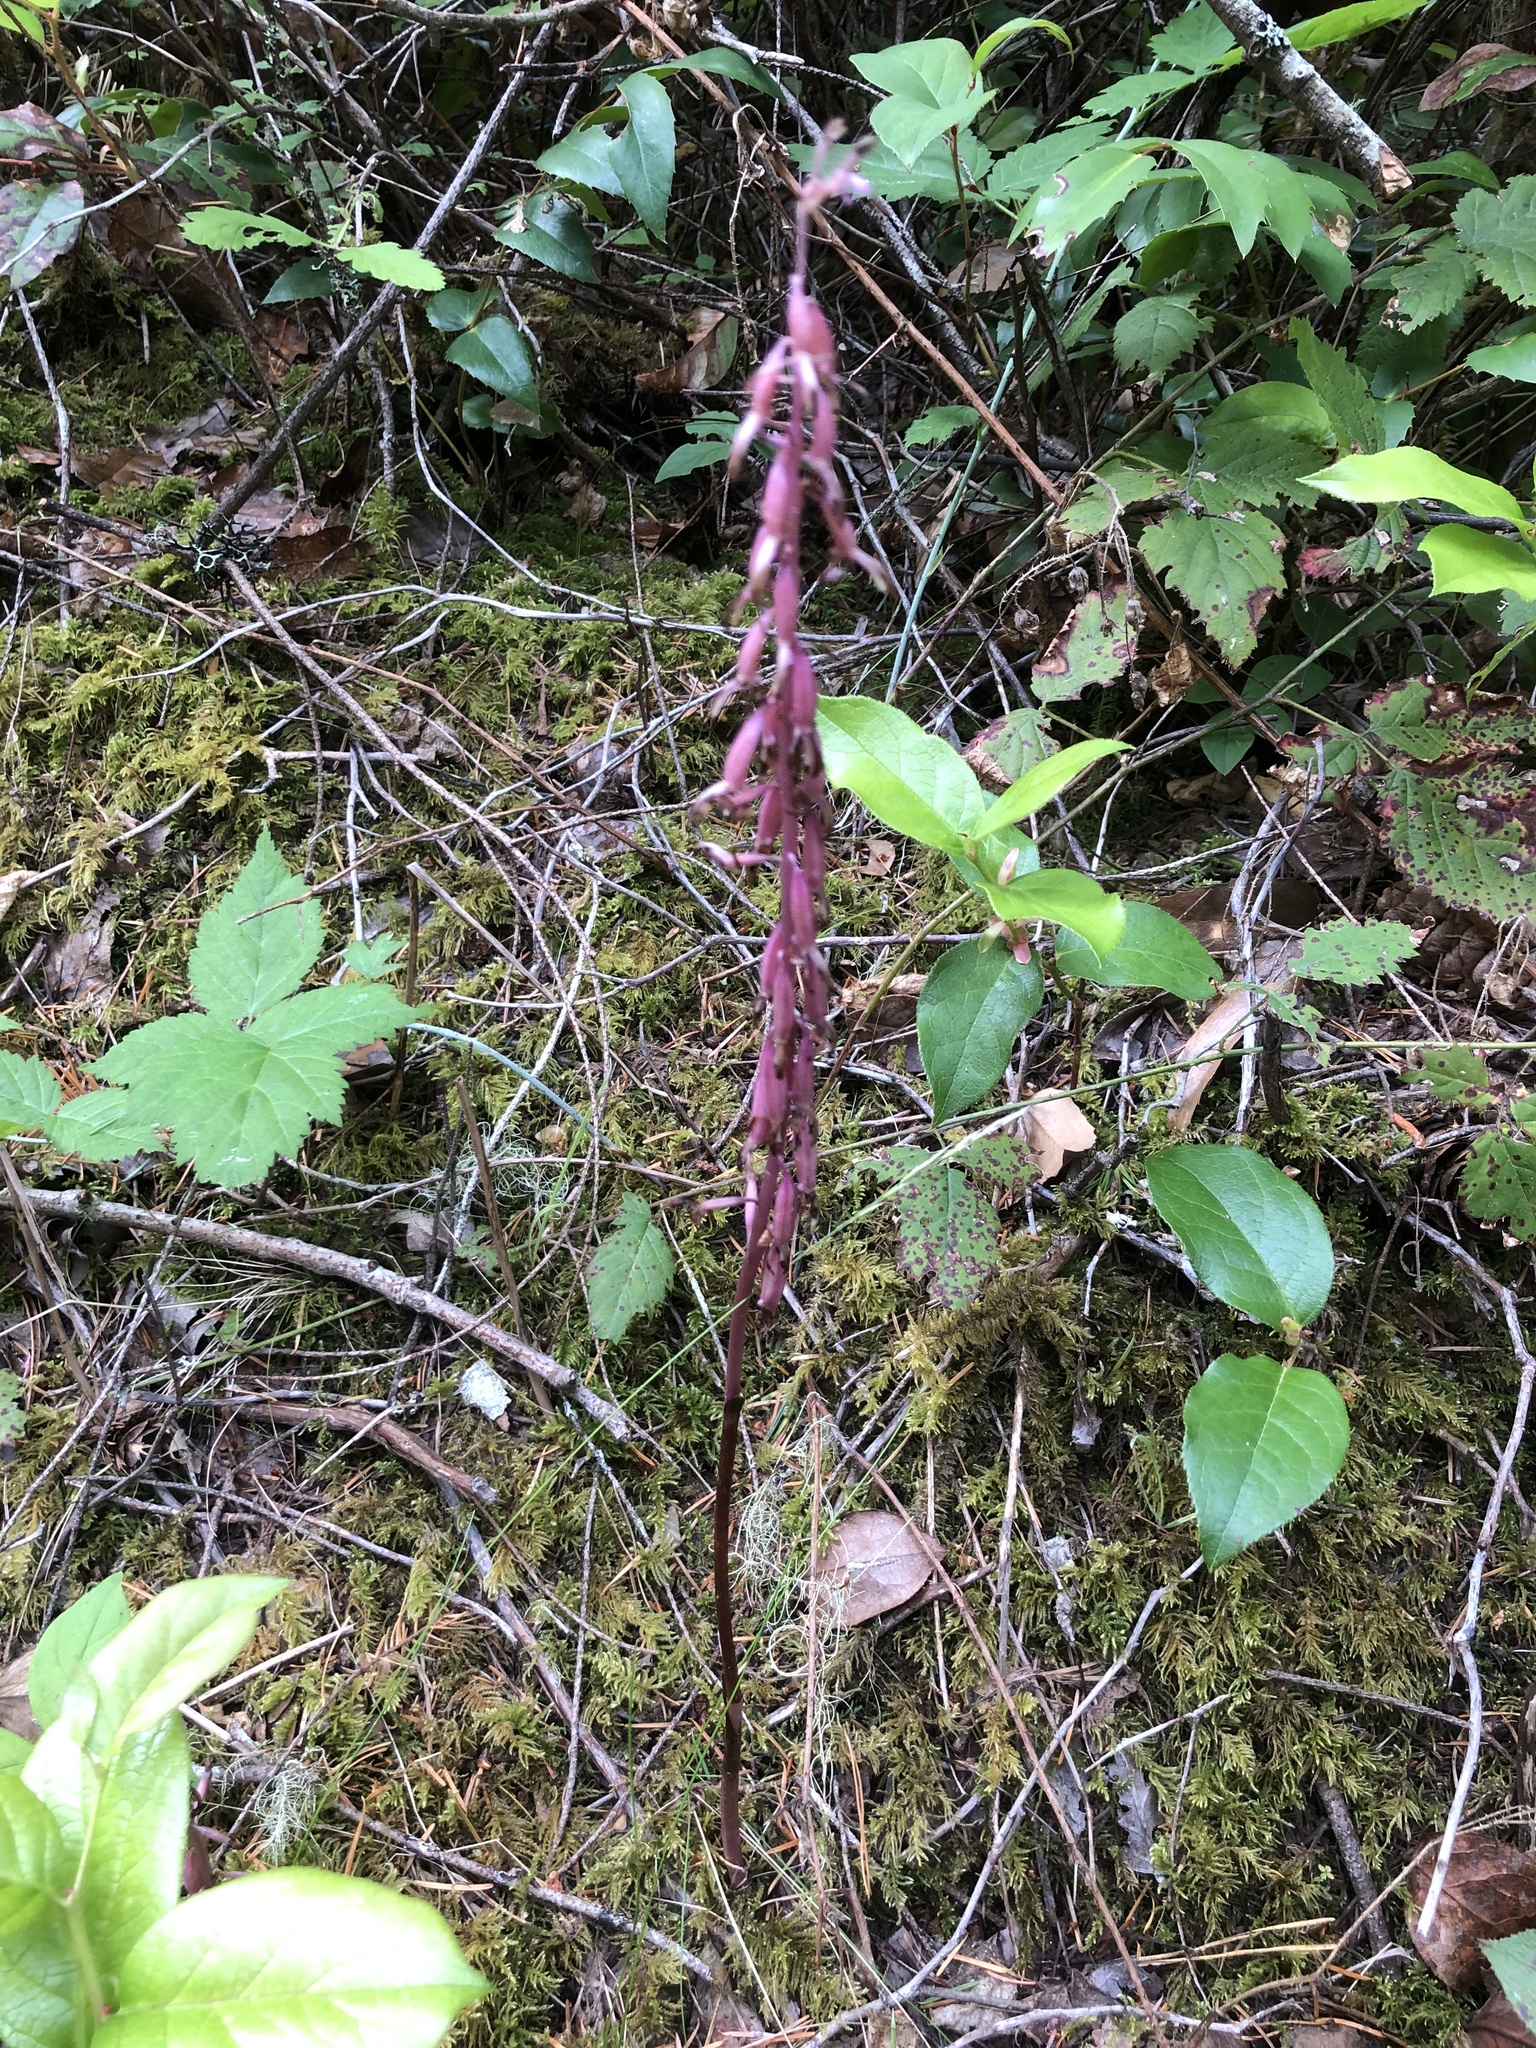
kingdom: Plantae
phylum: Tracheophyta
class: Liliopsida
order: Asparagales
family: Orchidaceae
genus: Corallorhiza
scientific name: Corallorhiza mertensiana
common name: Pacific coralroot
